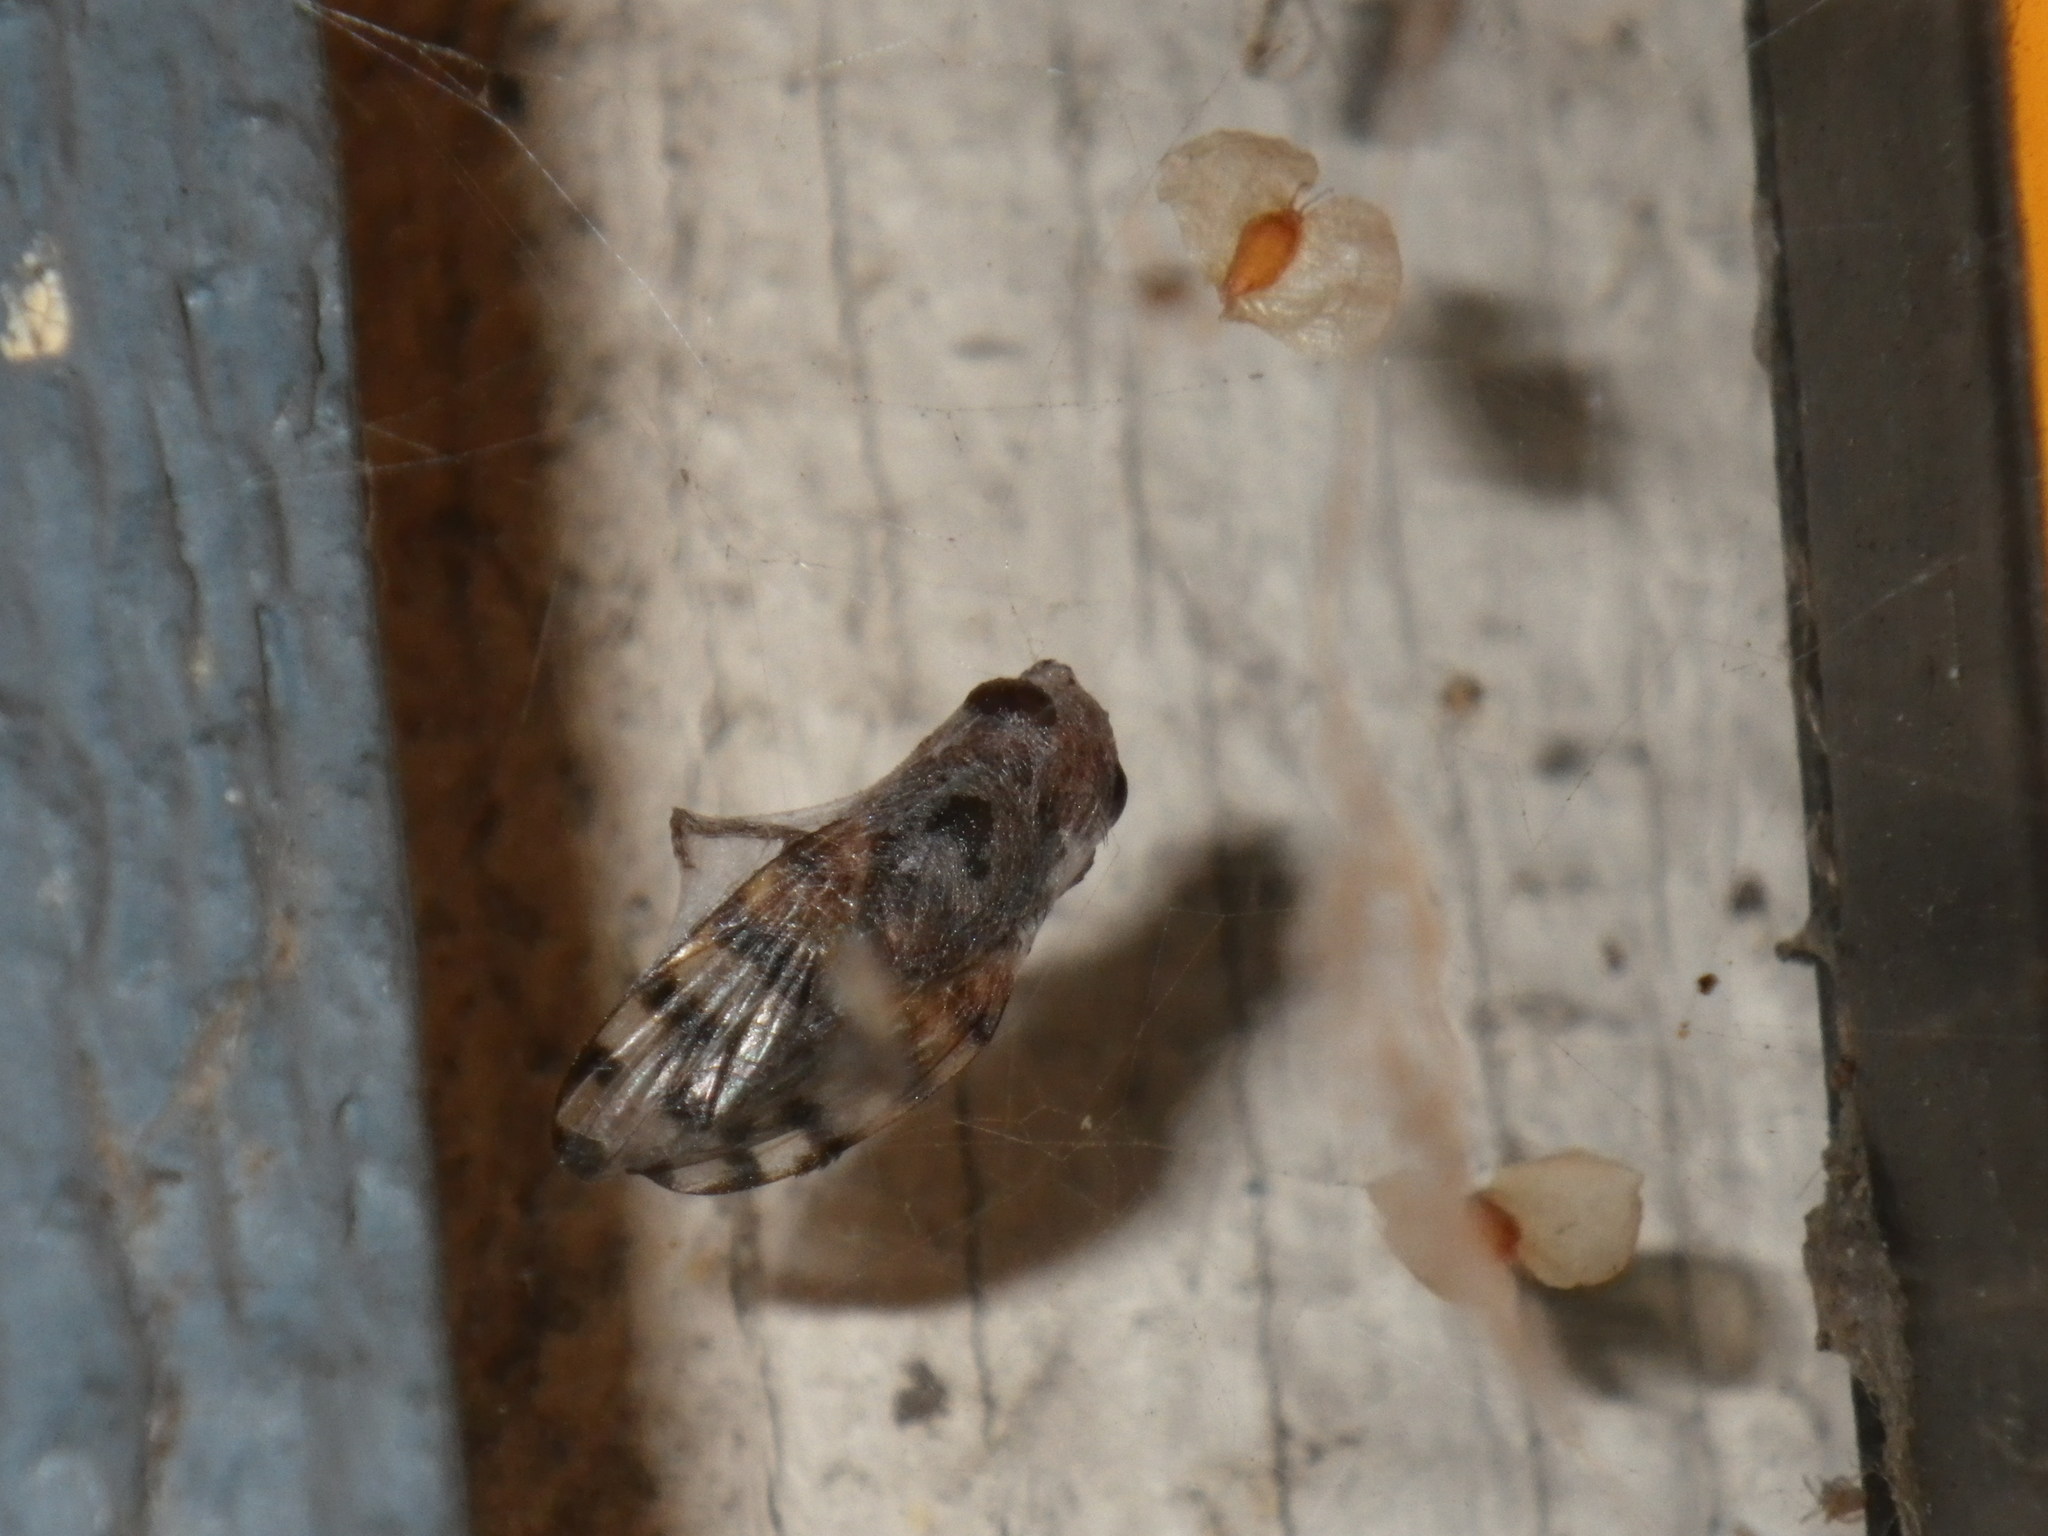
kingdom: Animalia
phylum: Arthropoda
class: Insecta
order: Diptera
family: Ulidiidae
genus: Ceroxys
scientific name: Ceroxys latiusculus
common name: Picture-winged fly
